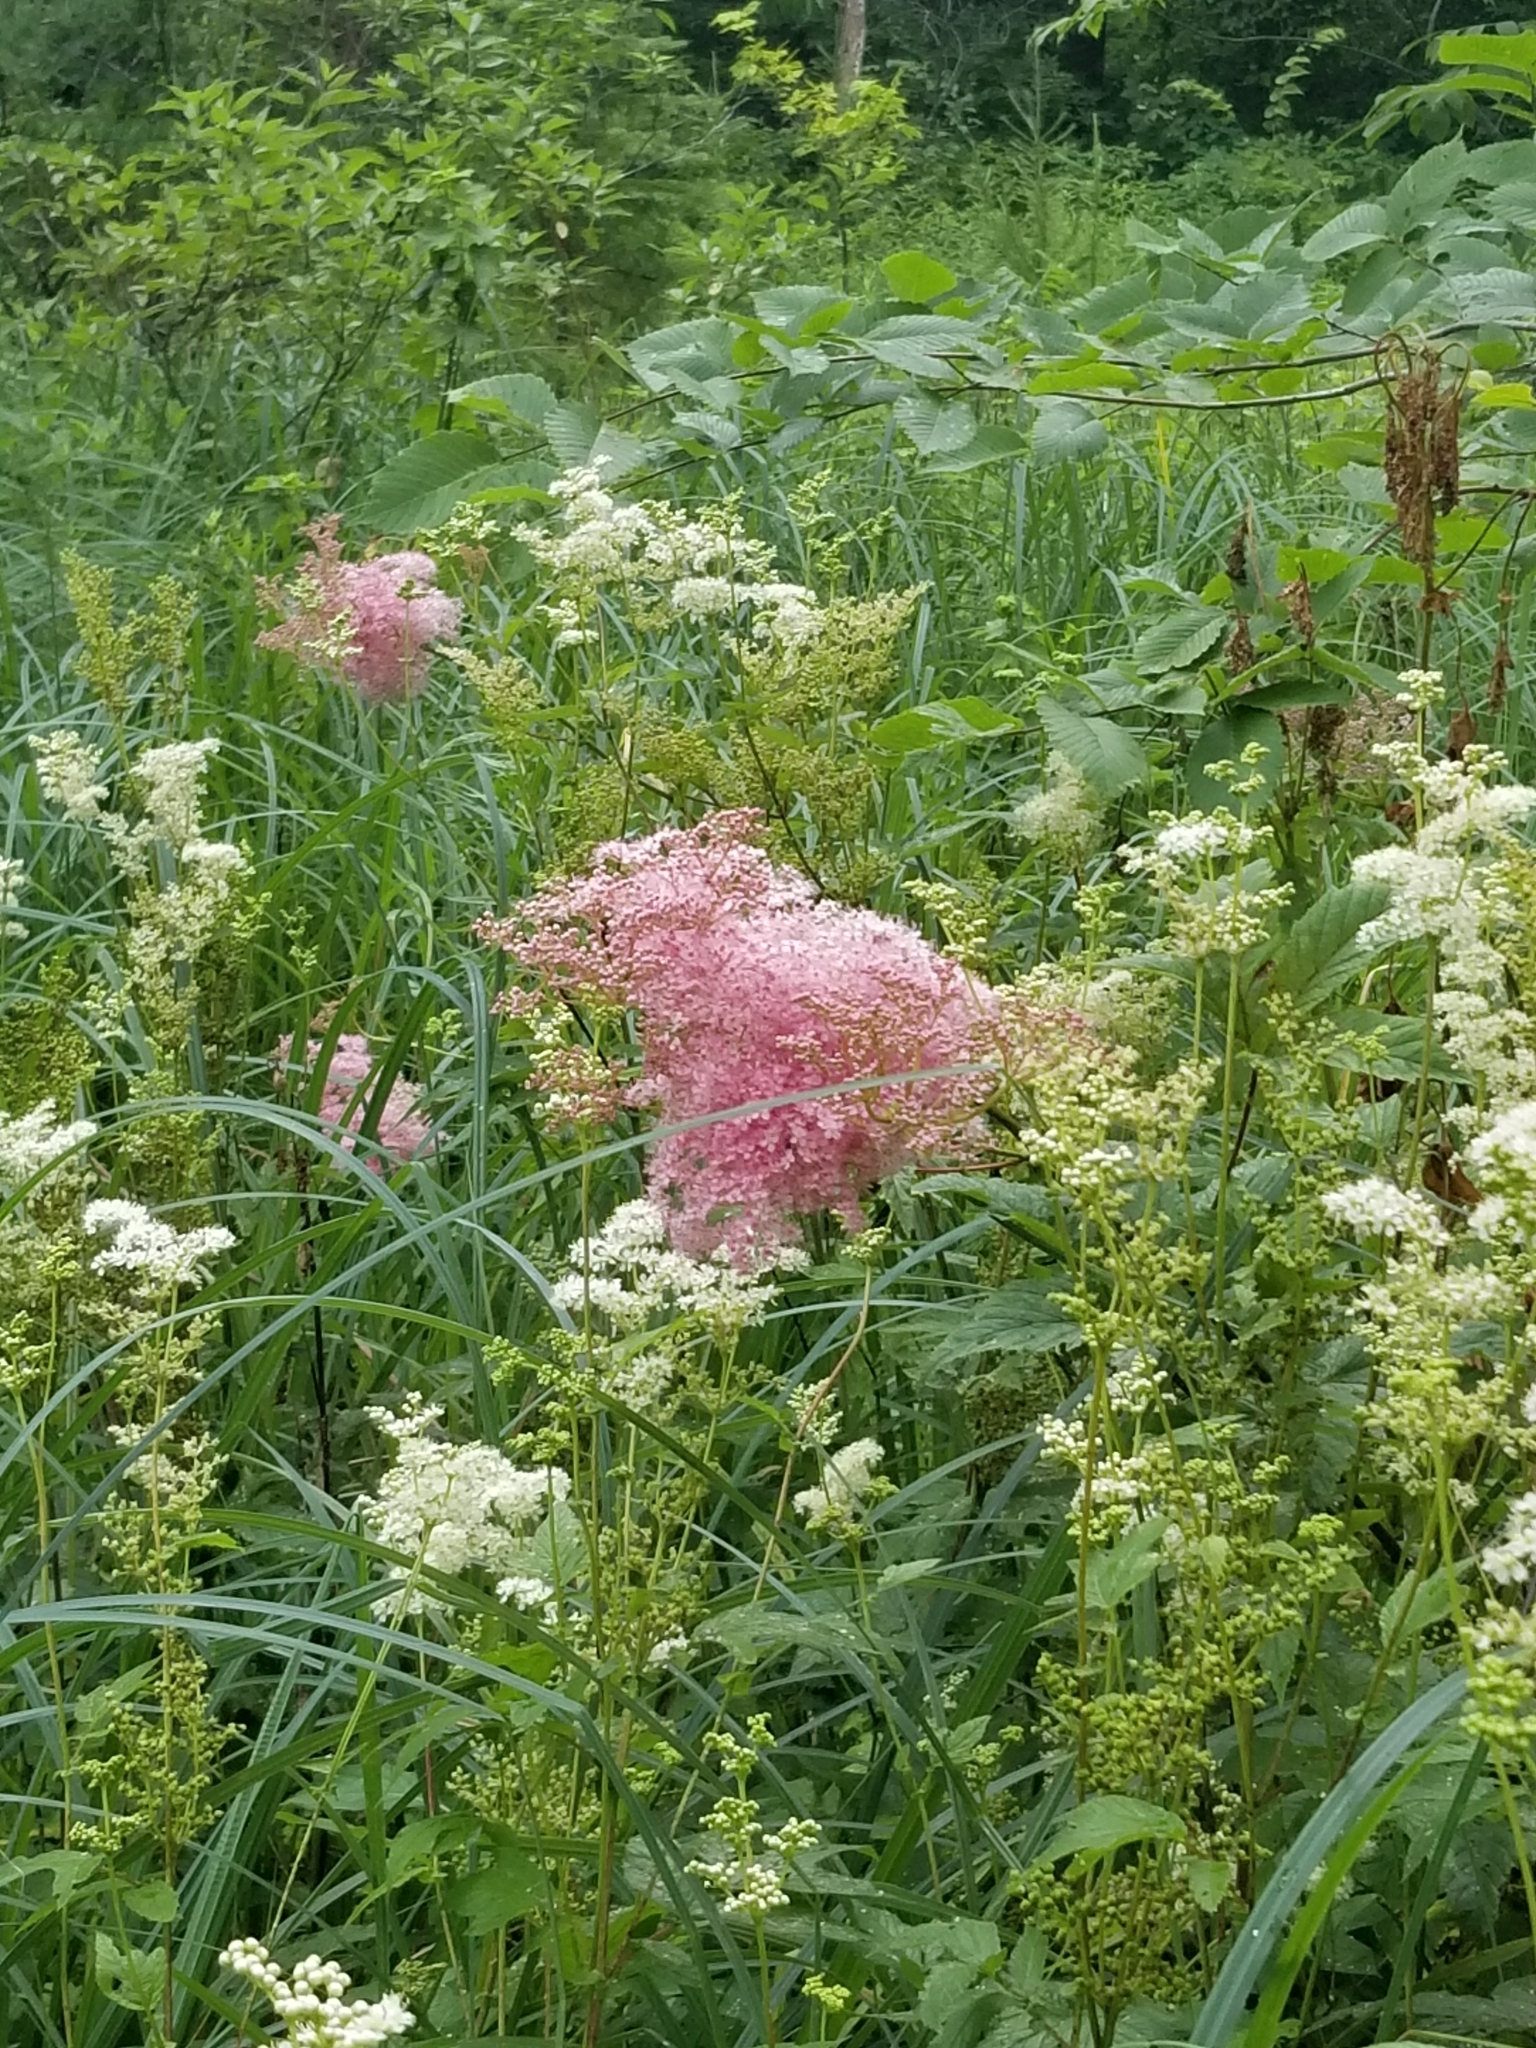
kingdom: Plantae
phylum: Tracheophyta
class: Magnoliopsida
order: Rosales
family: Rosaceae
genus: Filipendula
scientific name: Filipendula rubra
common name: Queen-of-the-prairie
